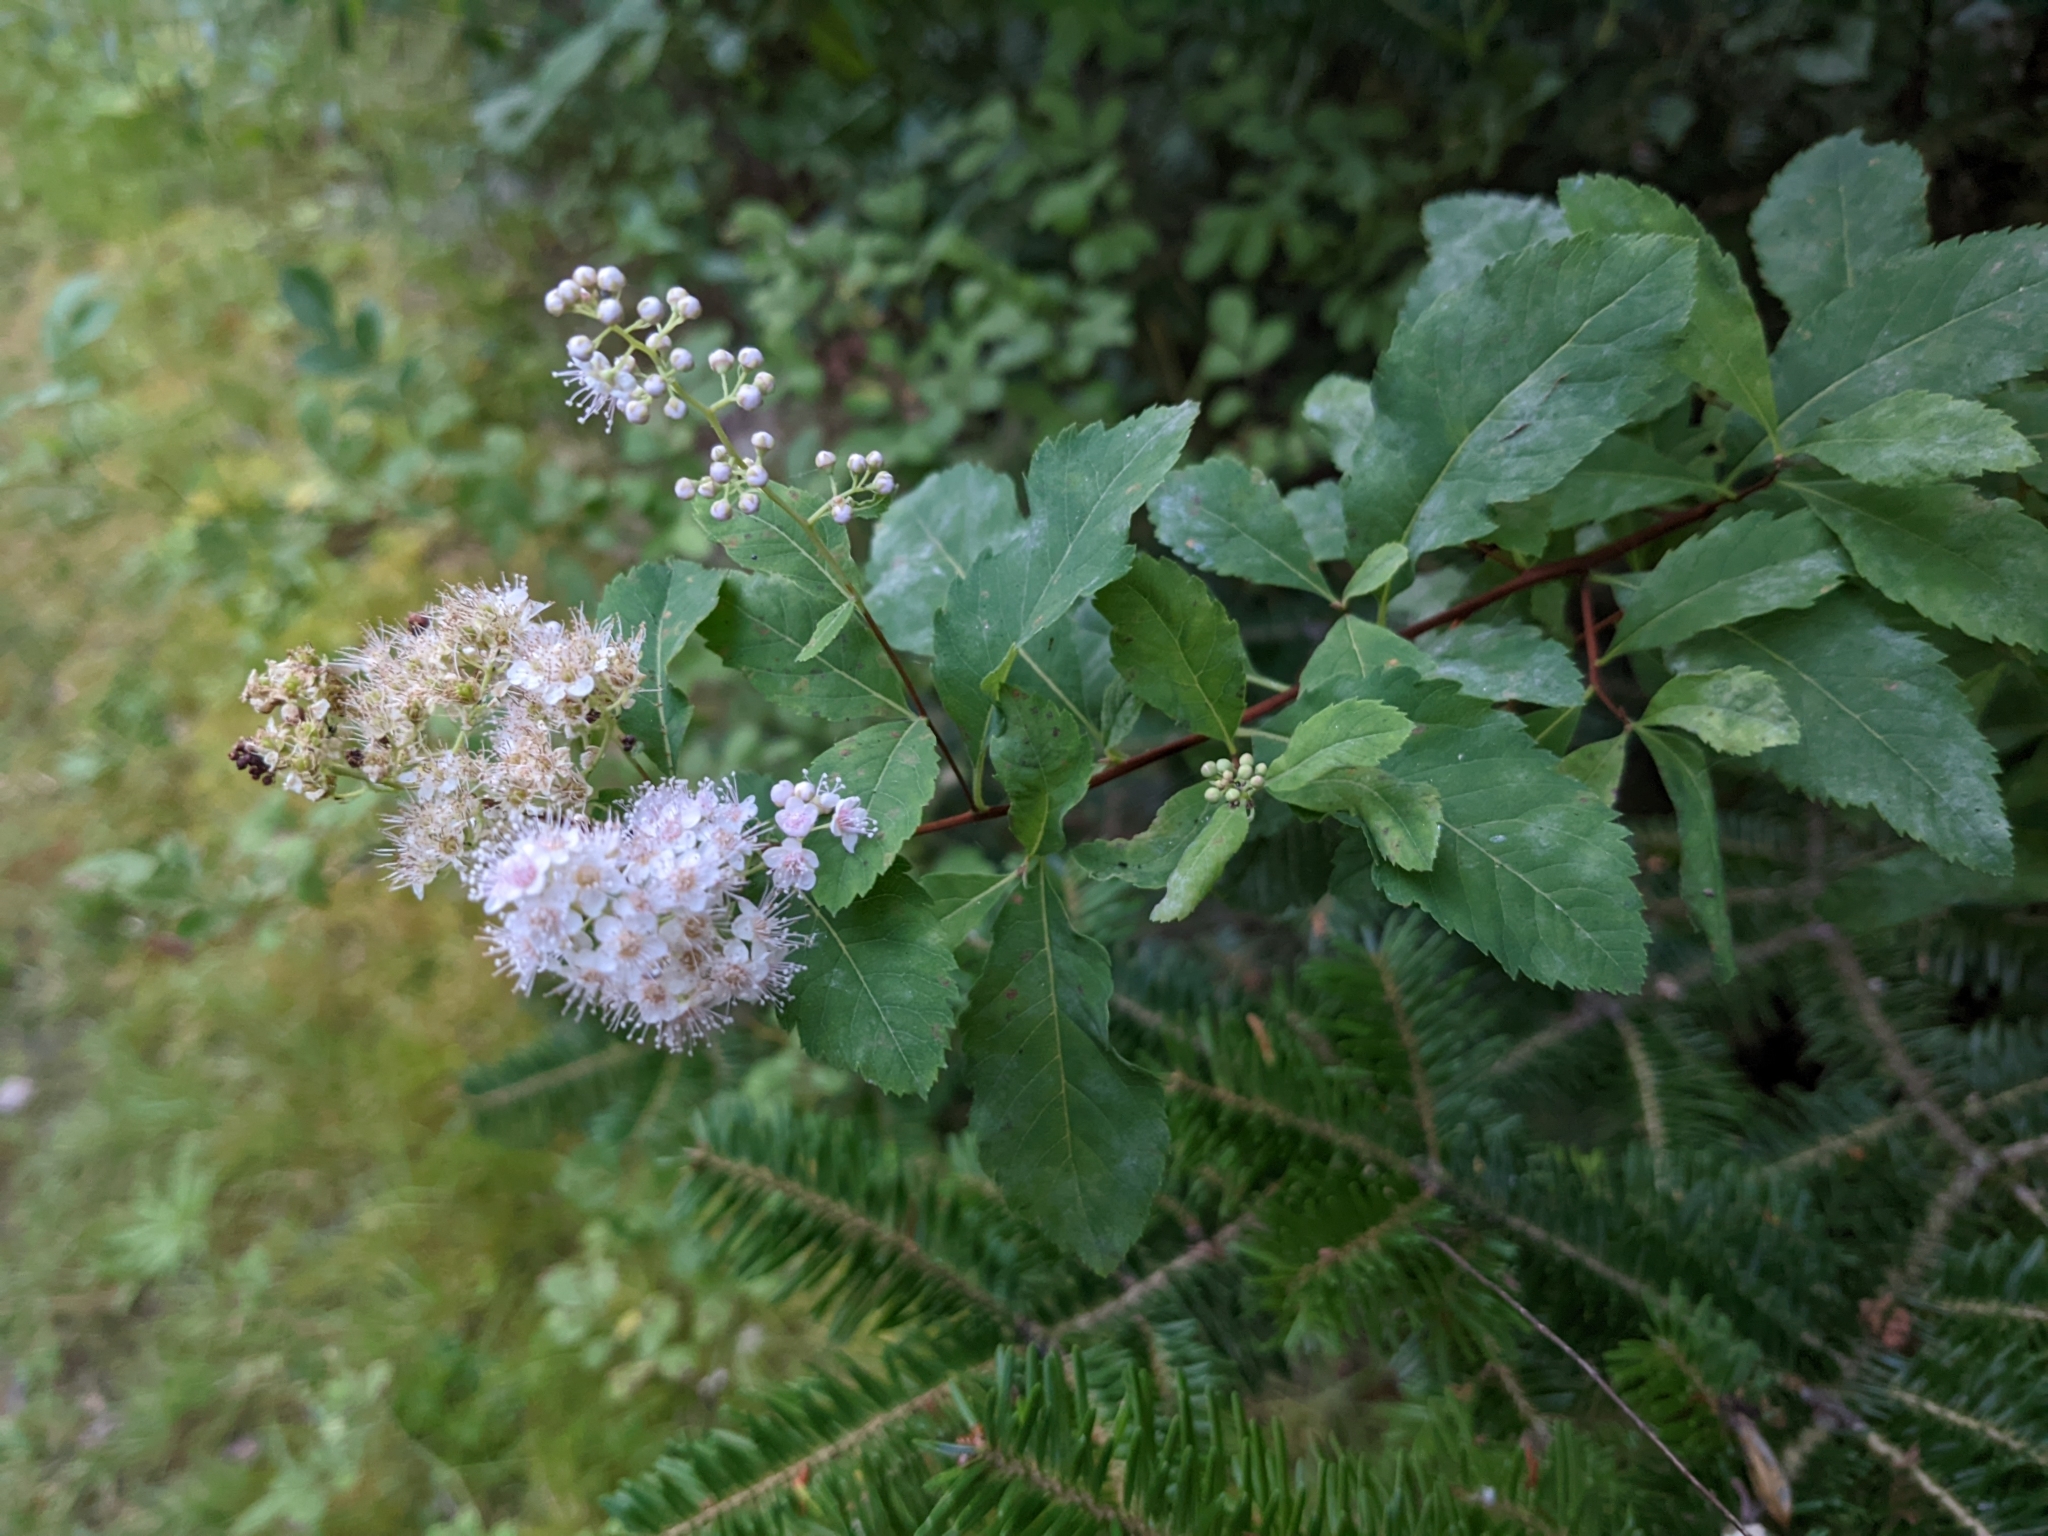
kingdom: Plantae
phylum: Tracheophyta
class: Magnoliopsida
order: Rosales
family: Rosaceae
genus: Spiraea
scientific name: Spiraea alba
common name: Pale bridewort
